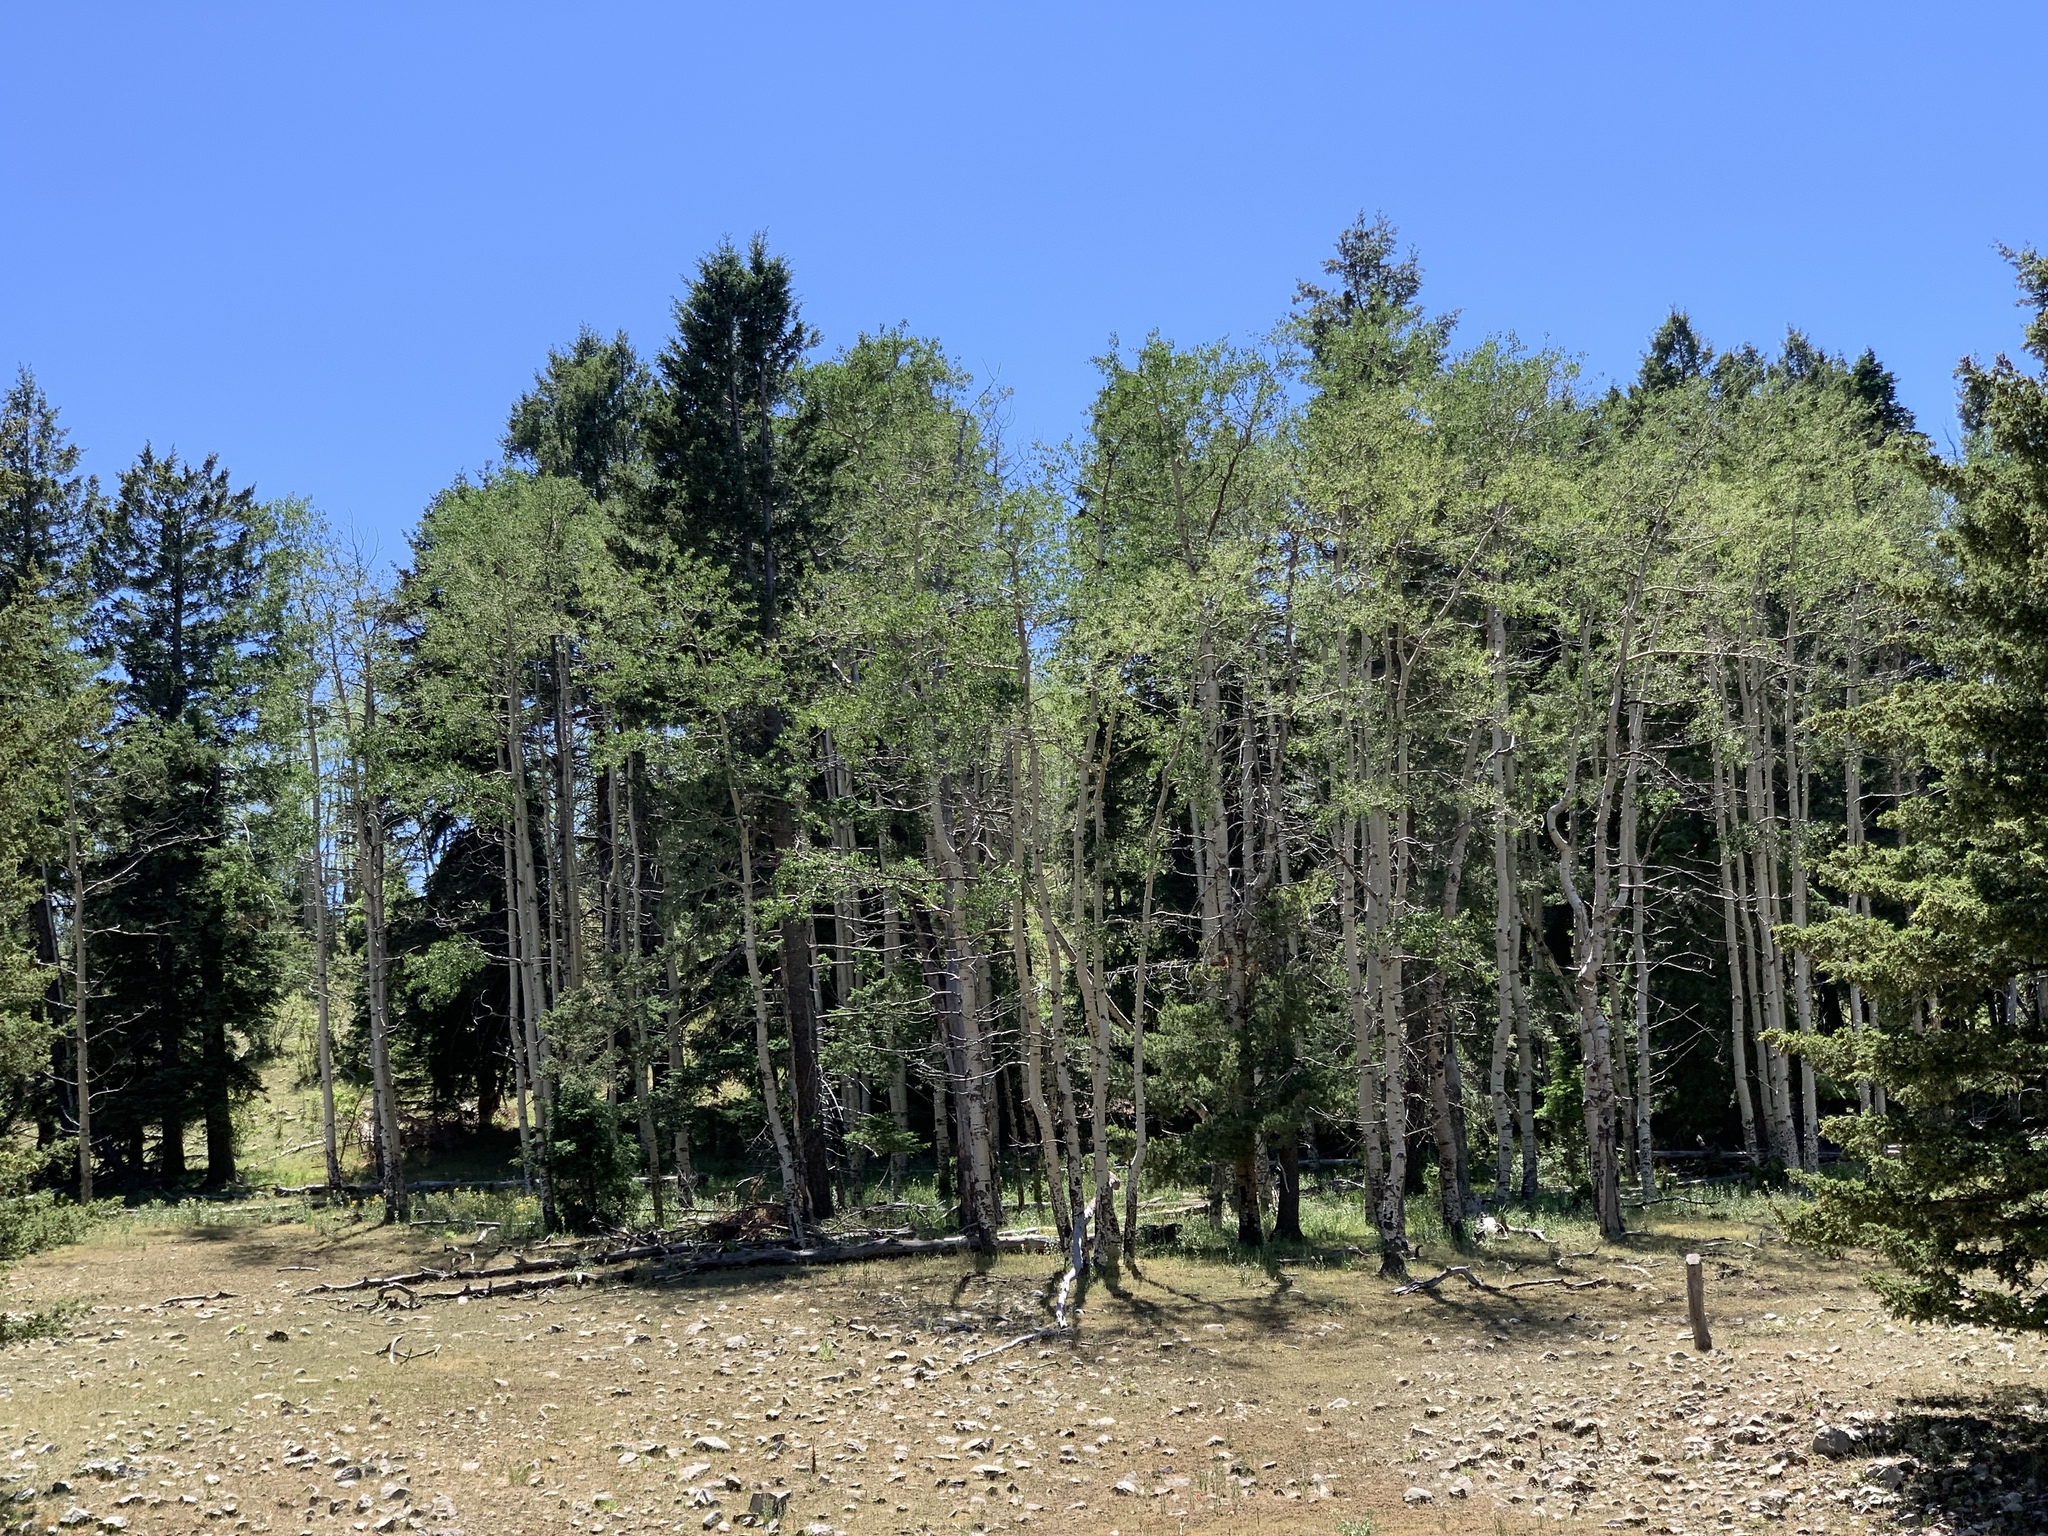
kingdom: Plantae
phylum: Tracheophyta
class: Magnoliopsida
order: Malpighiales
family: Salicaceae
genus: Populus
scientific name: Populus tremuloides
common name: Quaking aspen
